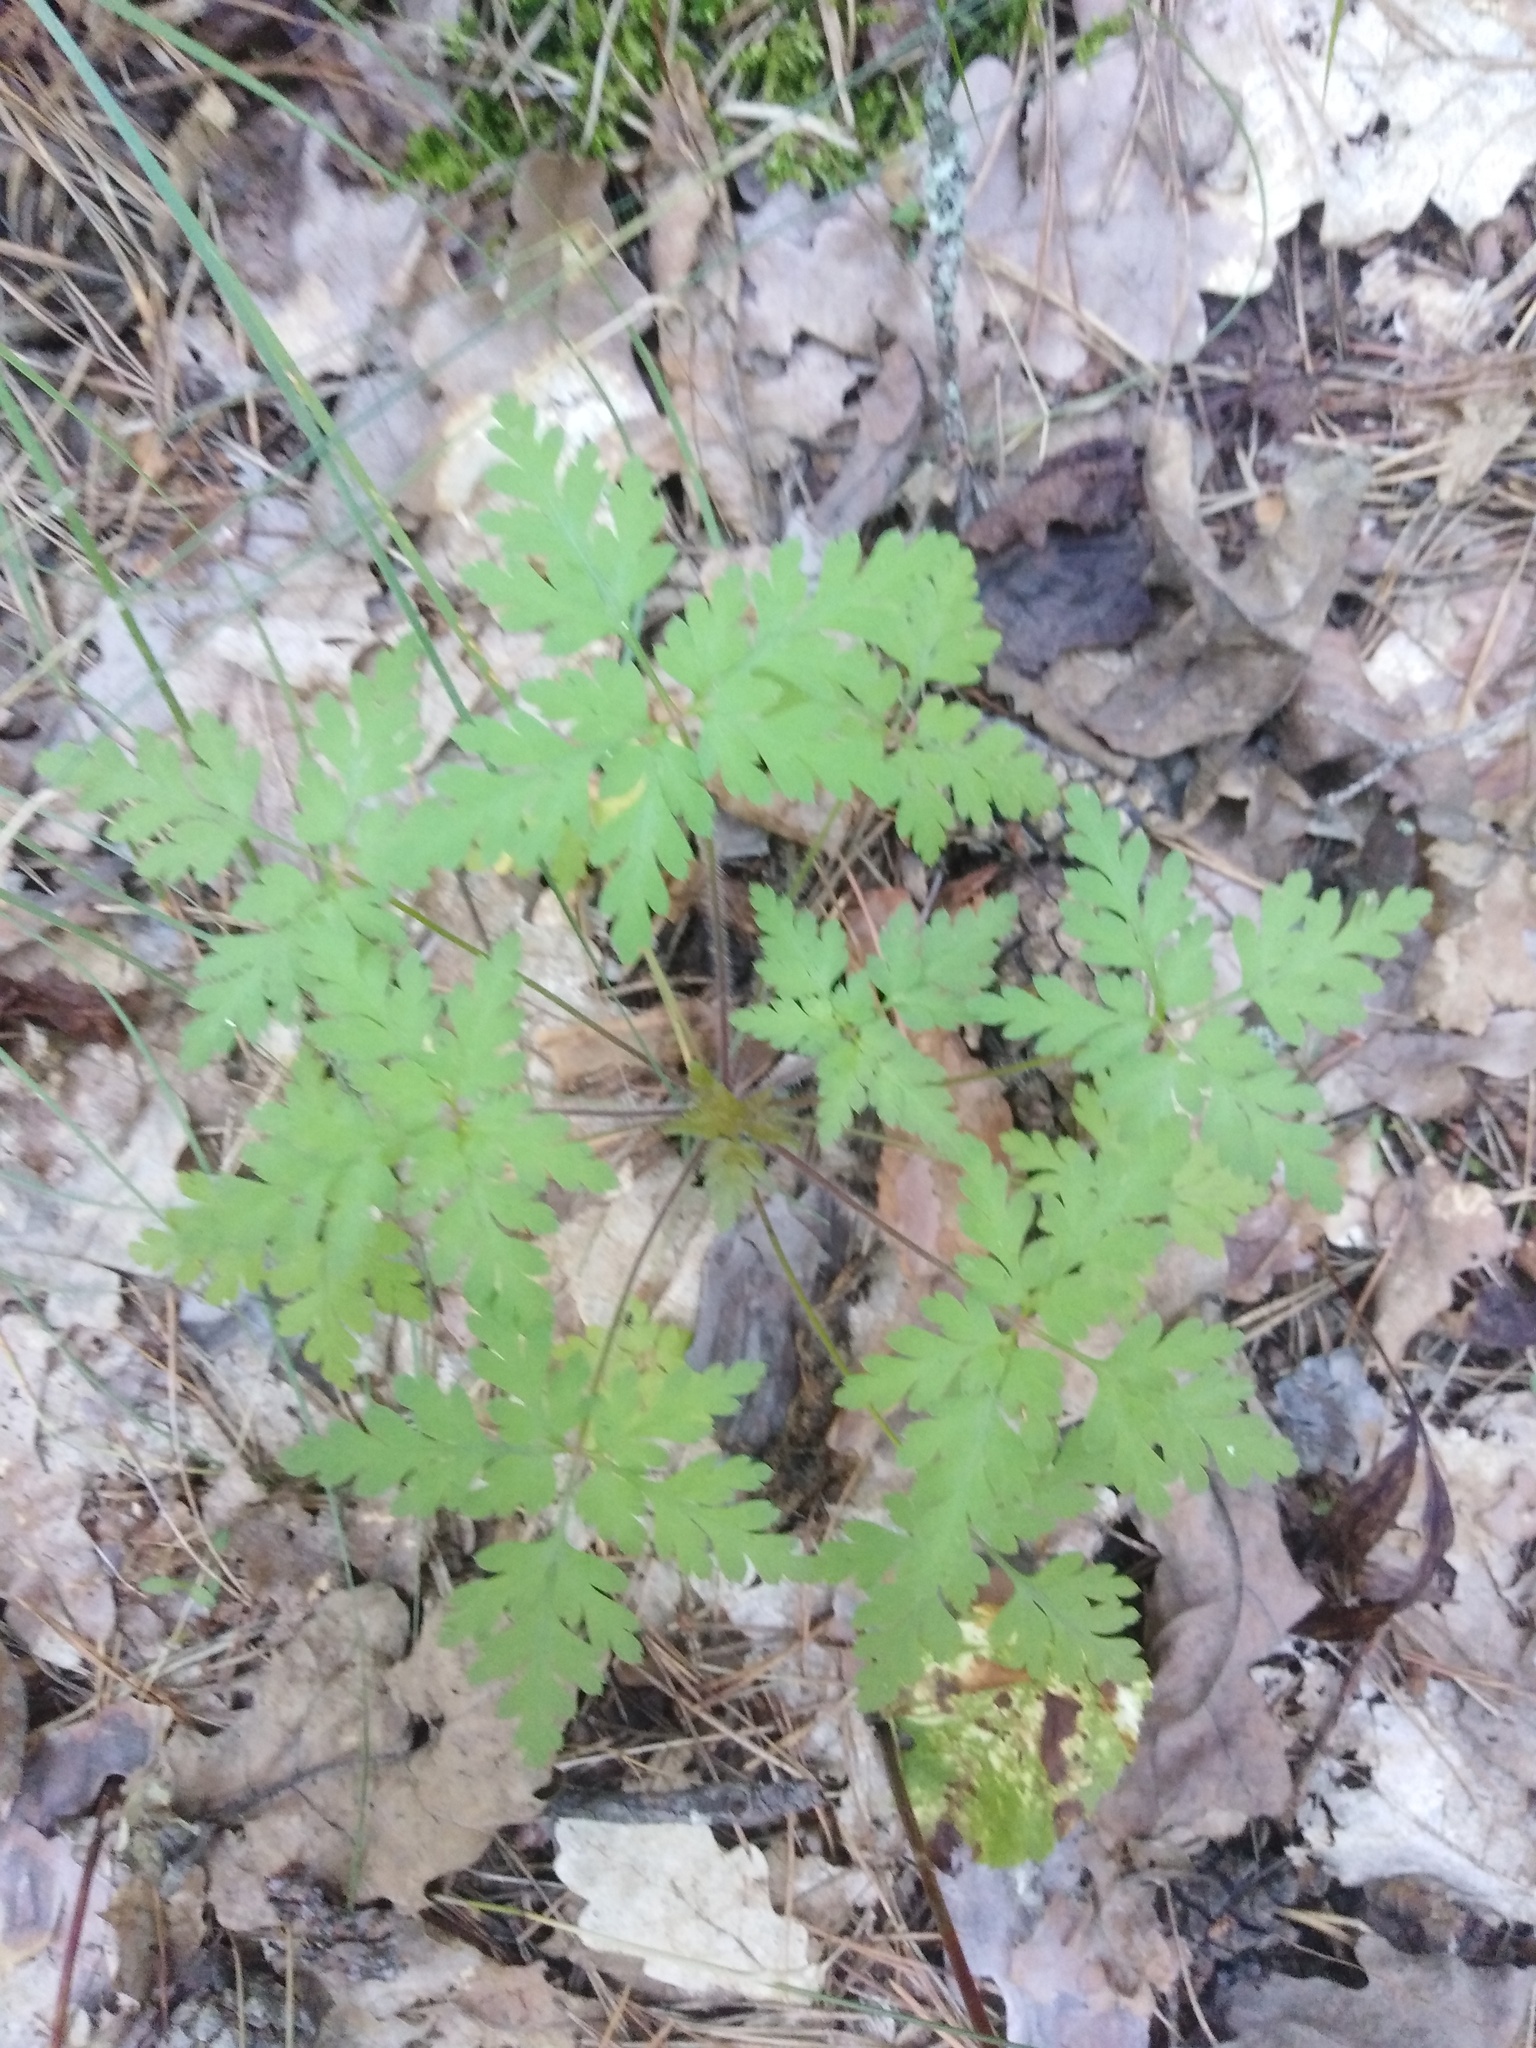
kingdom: Plantae
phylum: Tracheophyta
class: Magnoliopsida
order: Geraniales
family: Geraniaceae
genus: Geranium
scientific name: Geranium robertianum
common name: Herb-robert
